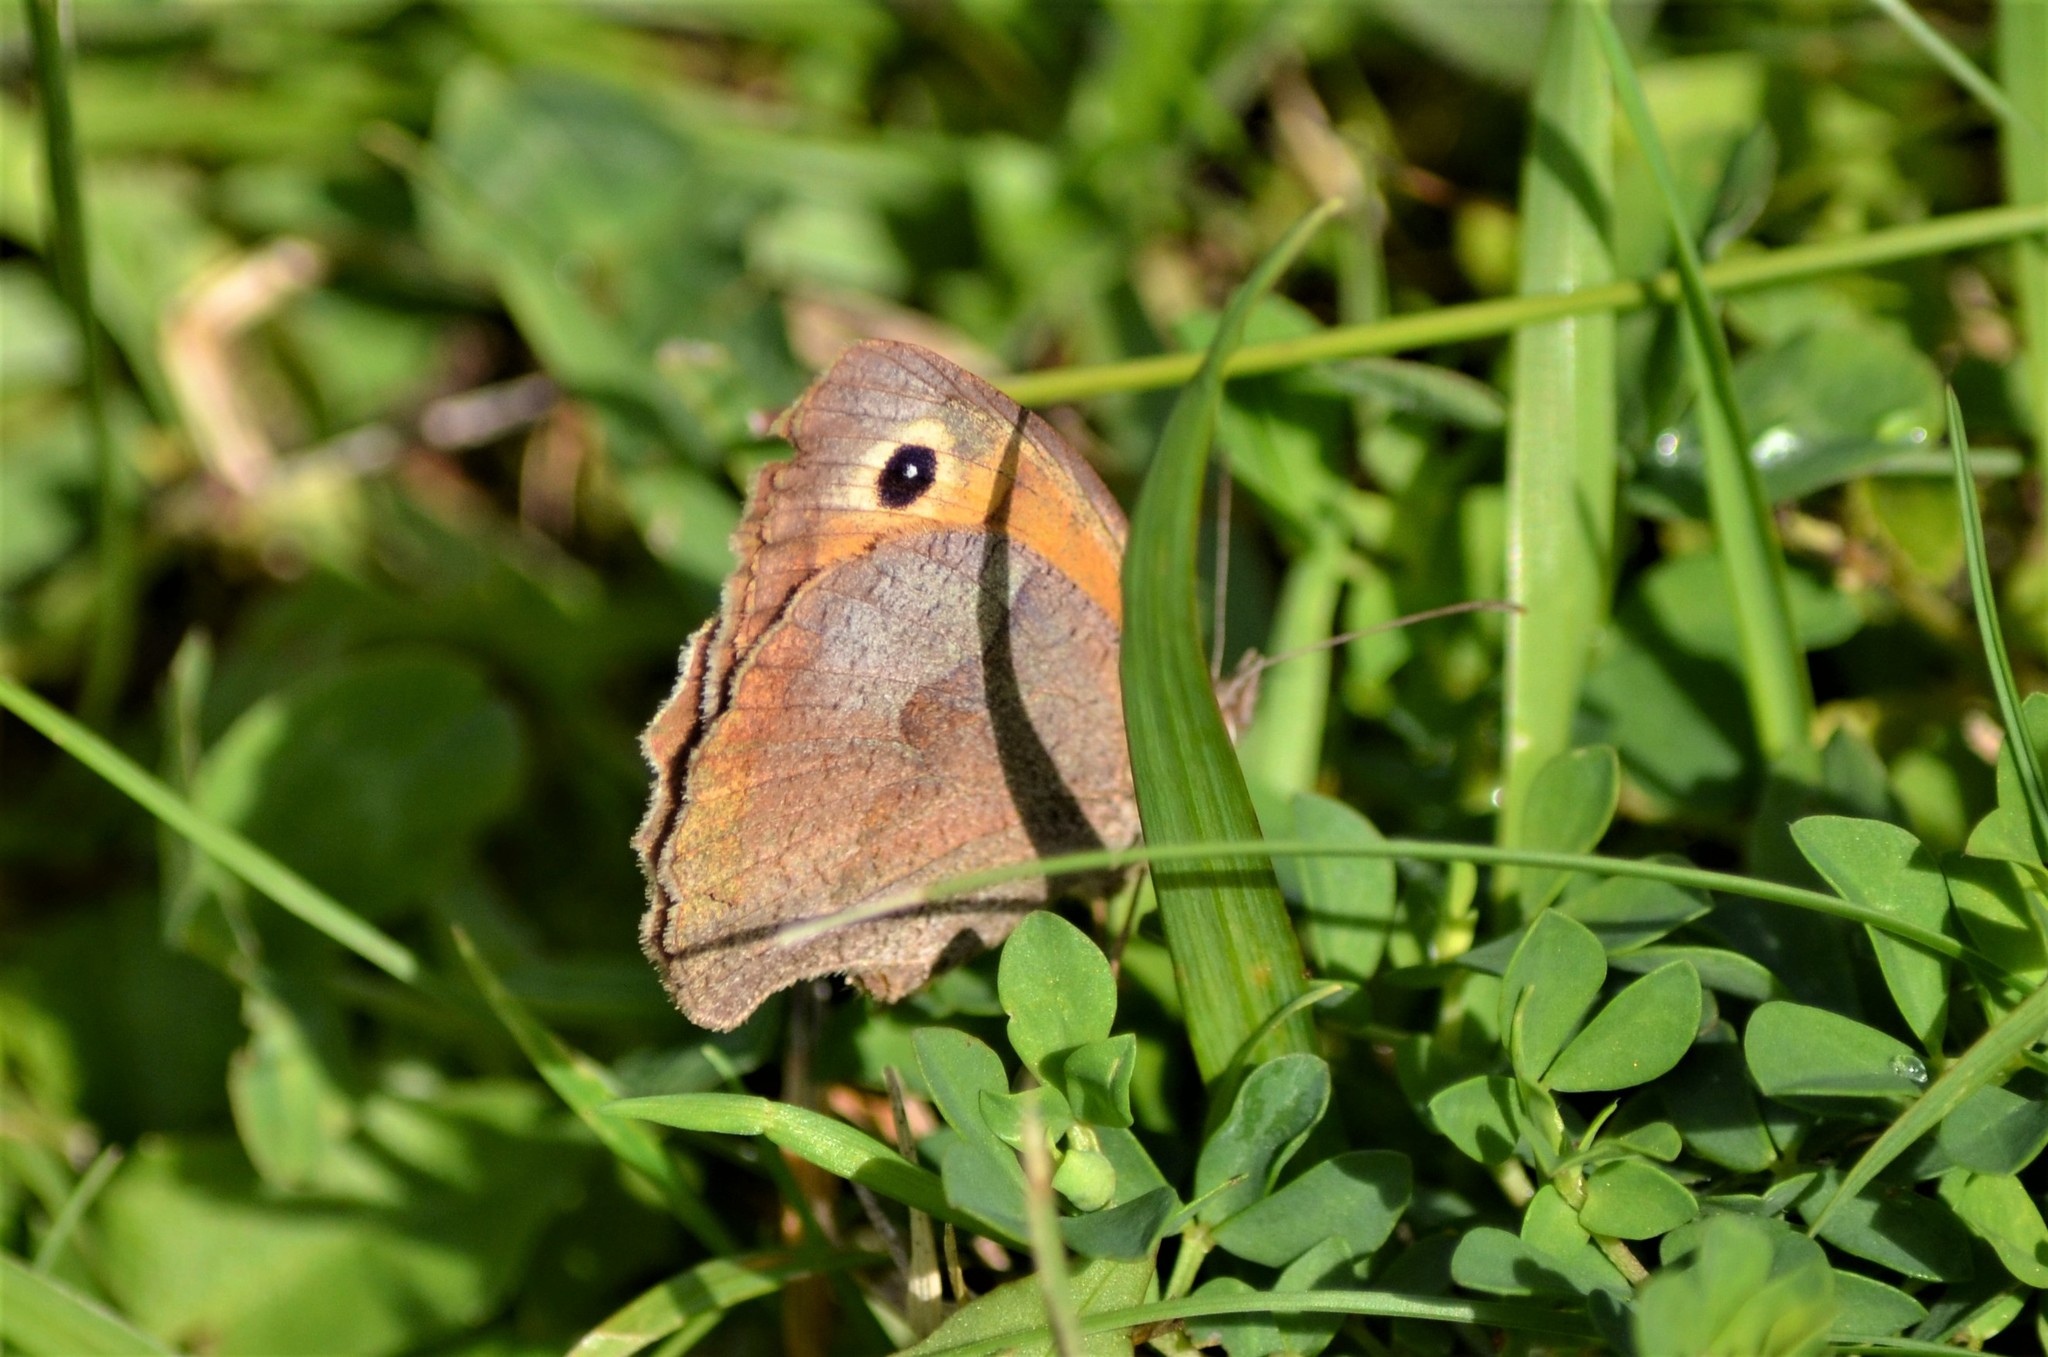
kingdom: Animalia
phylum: Arthropoda
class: Insecta
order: Lepidoptera
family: Nymphalidae
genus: Maniola
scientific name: Maniola jurtina
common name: Meadow brown
